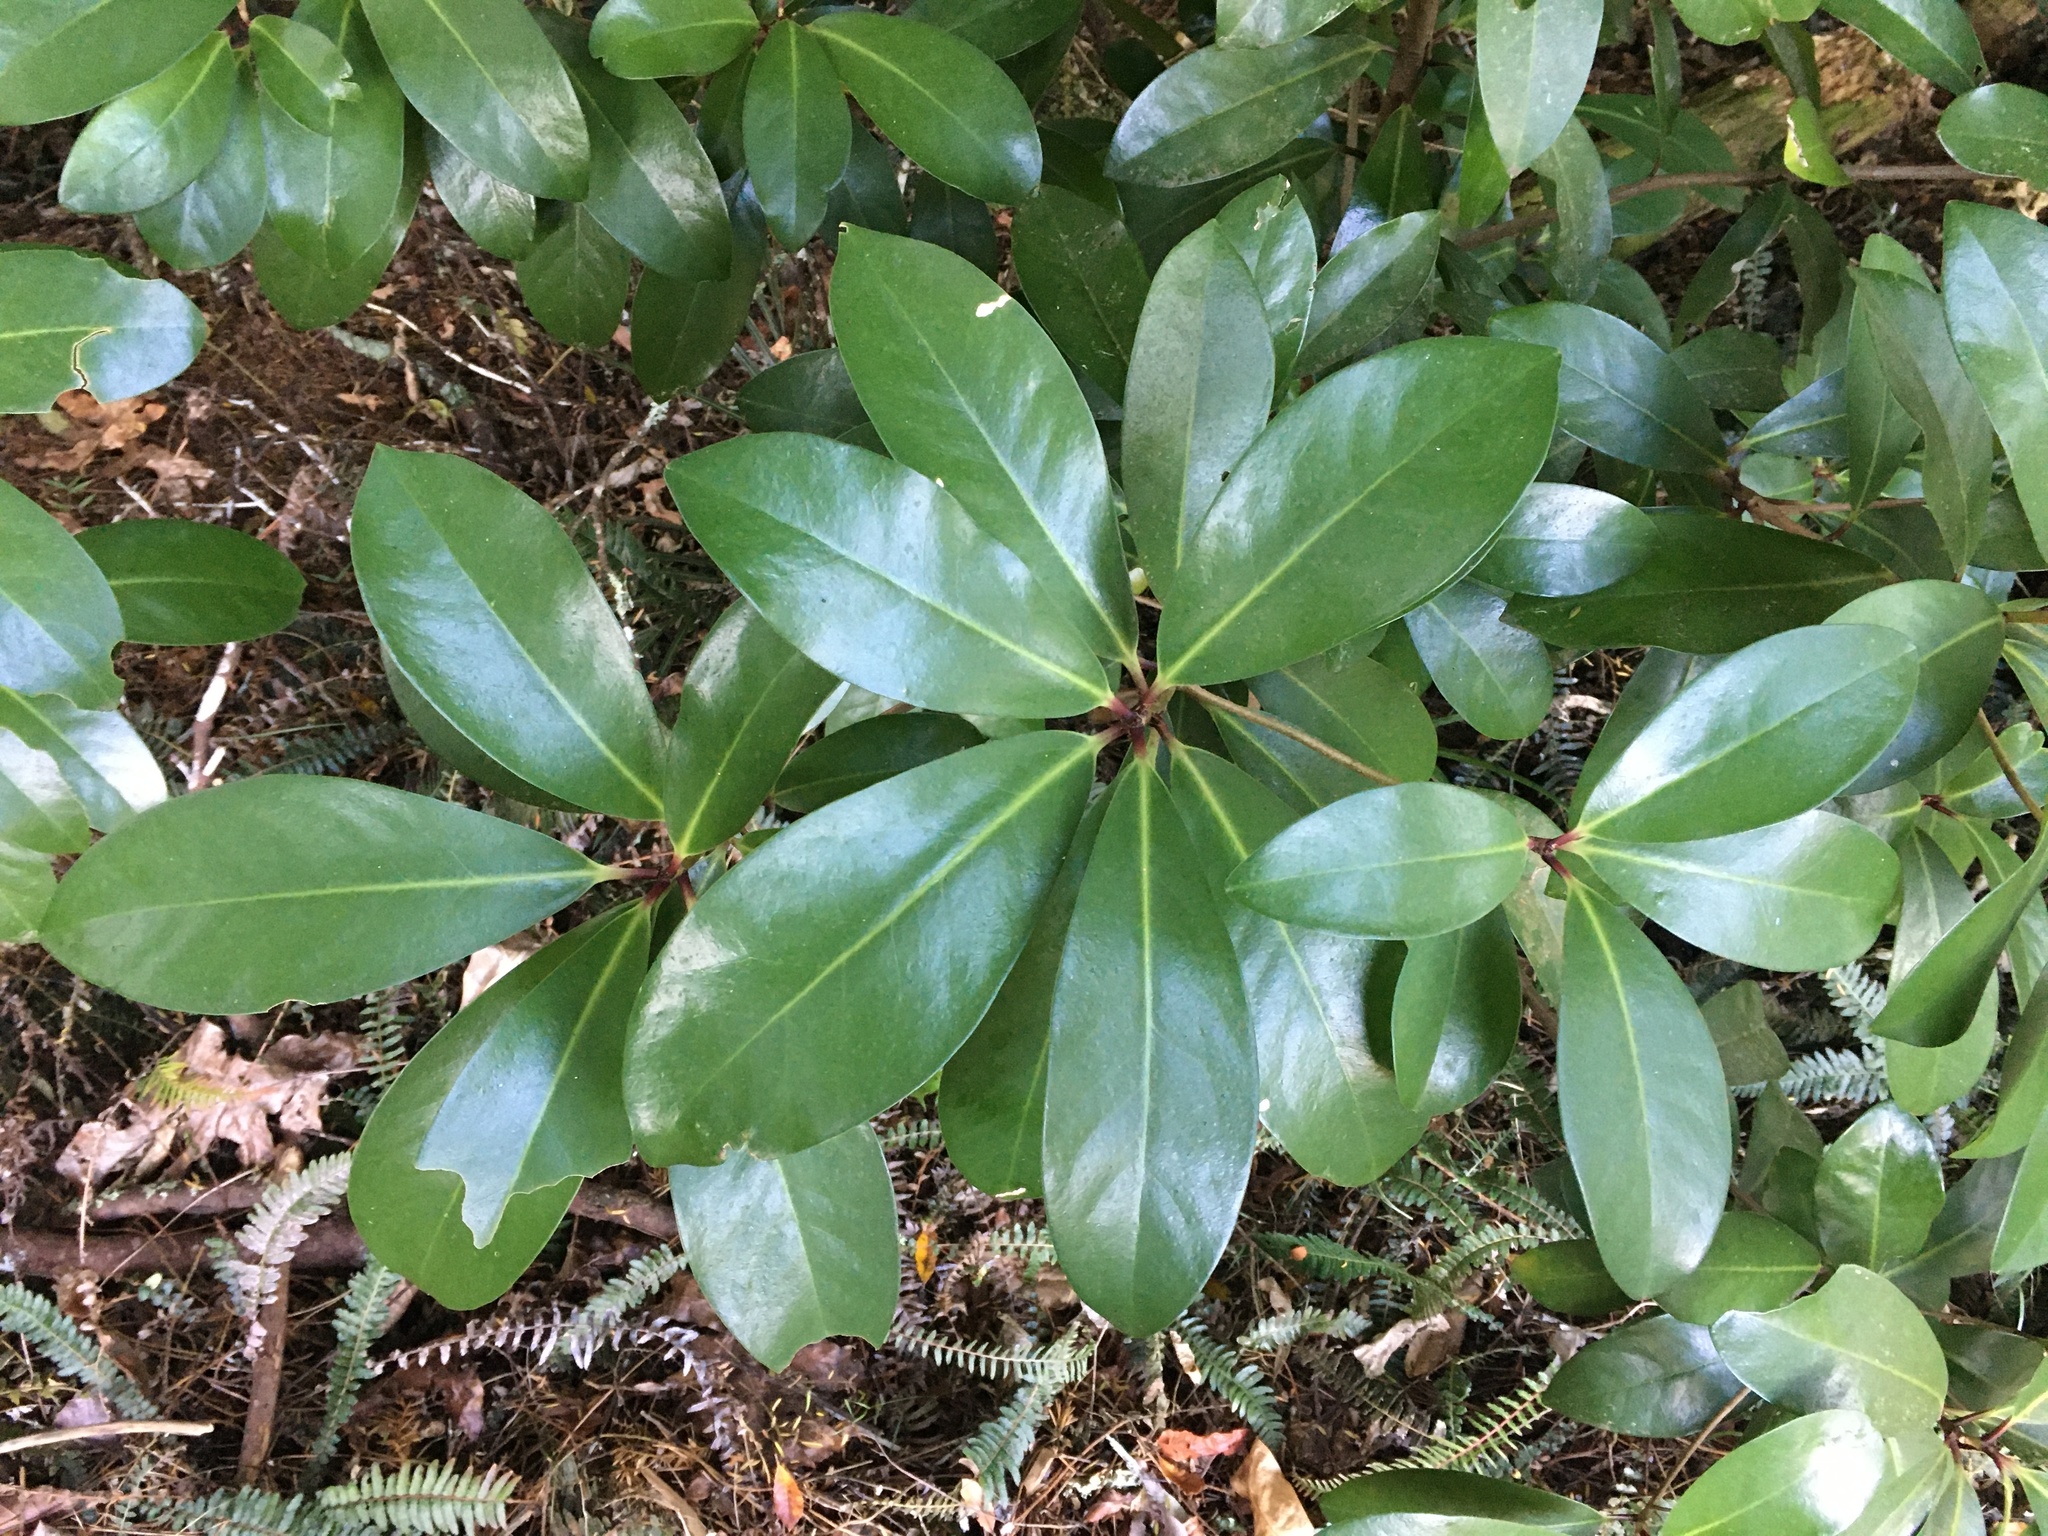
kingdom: Plantae
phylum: Tracheophyta
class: Magnoliopsida
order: Cucurbitales
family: Corynocarpaceae
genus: Corynocarpus
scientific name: Corynocarpus laevigatus
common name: New zealand laurel
